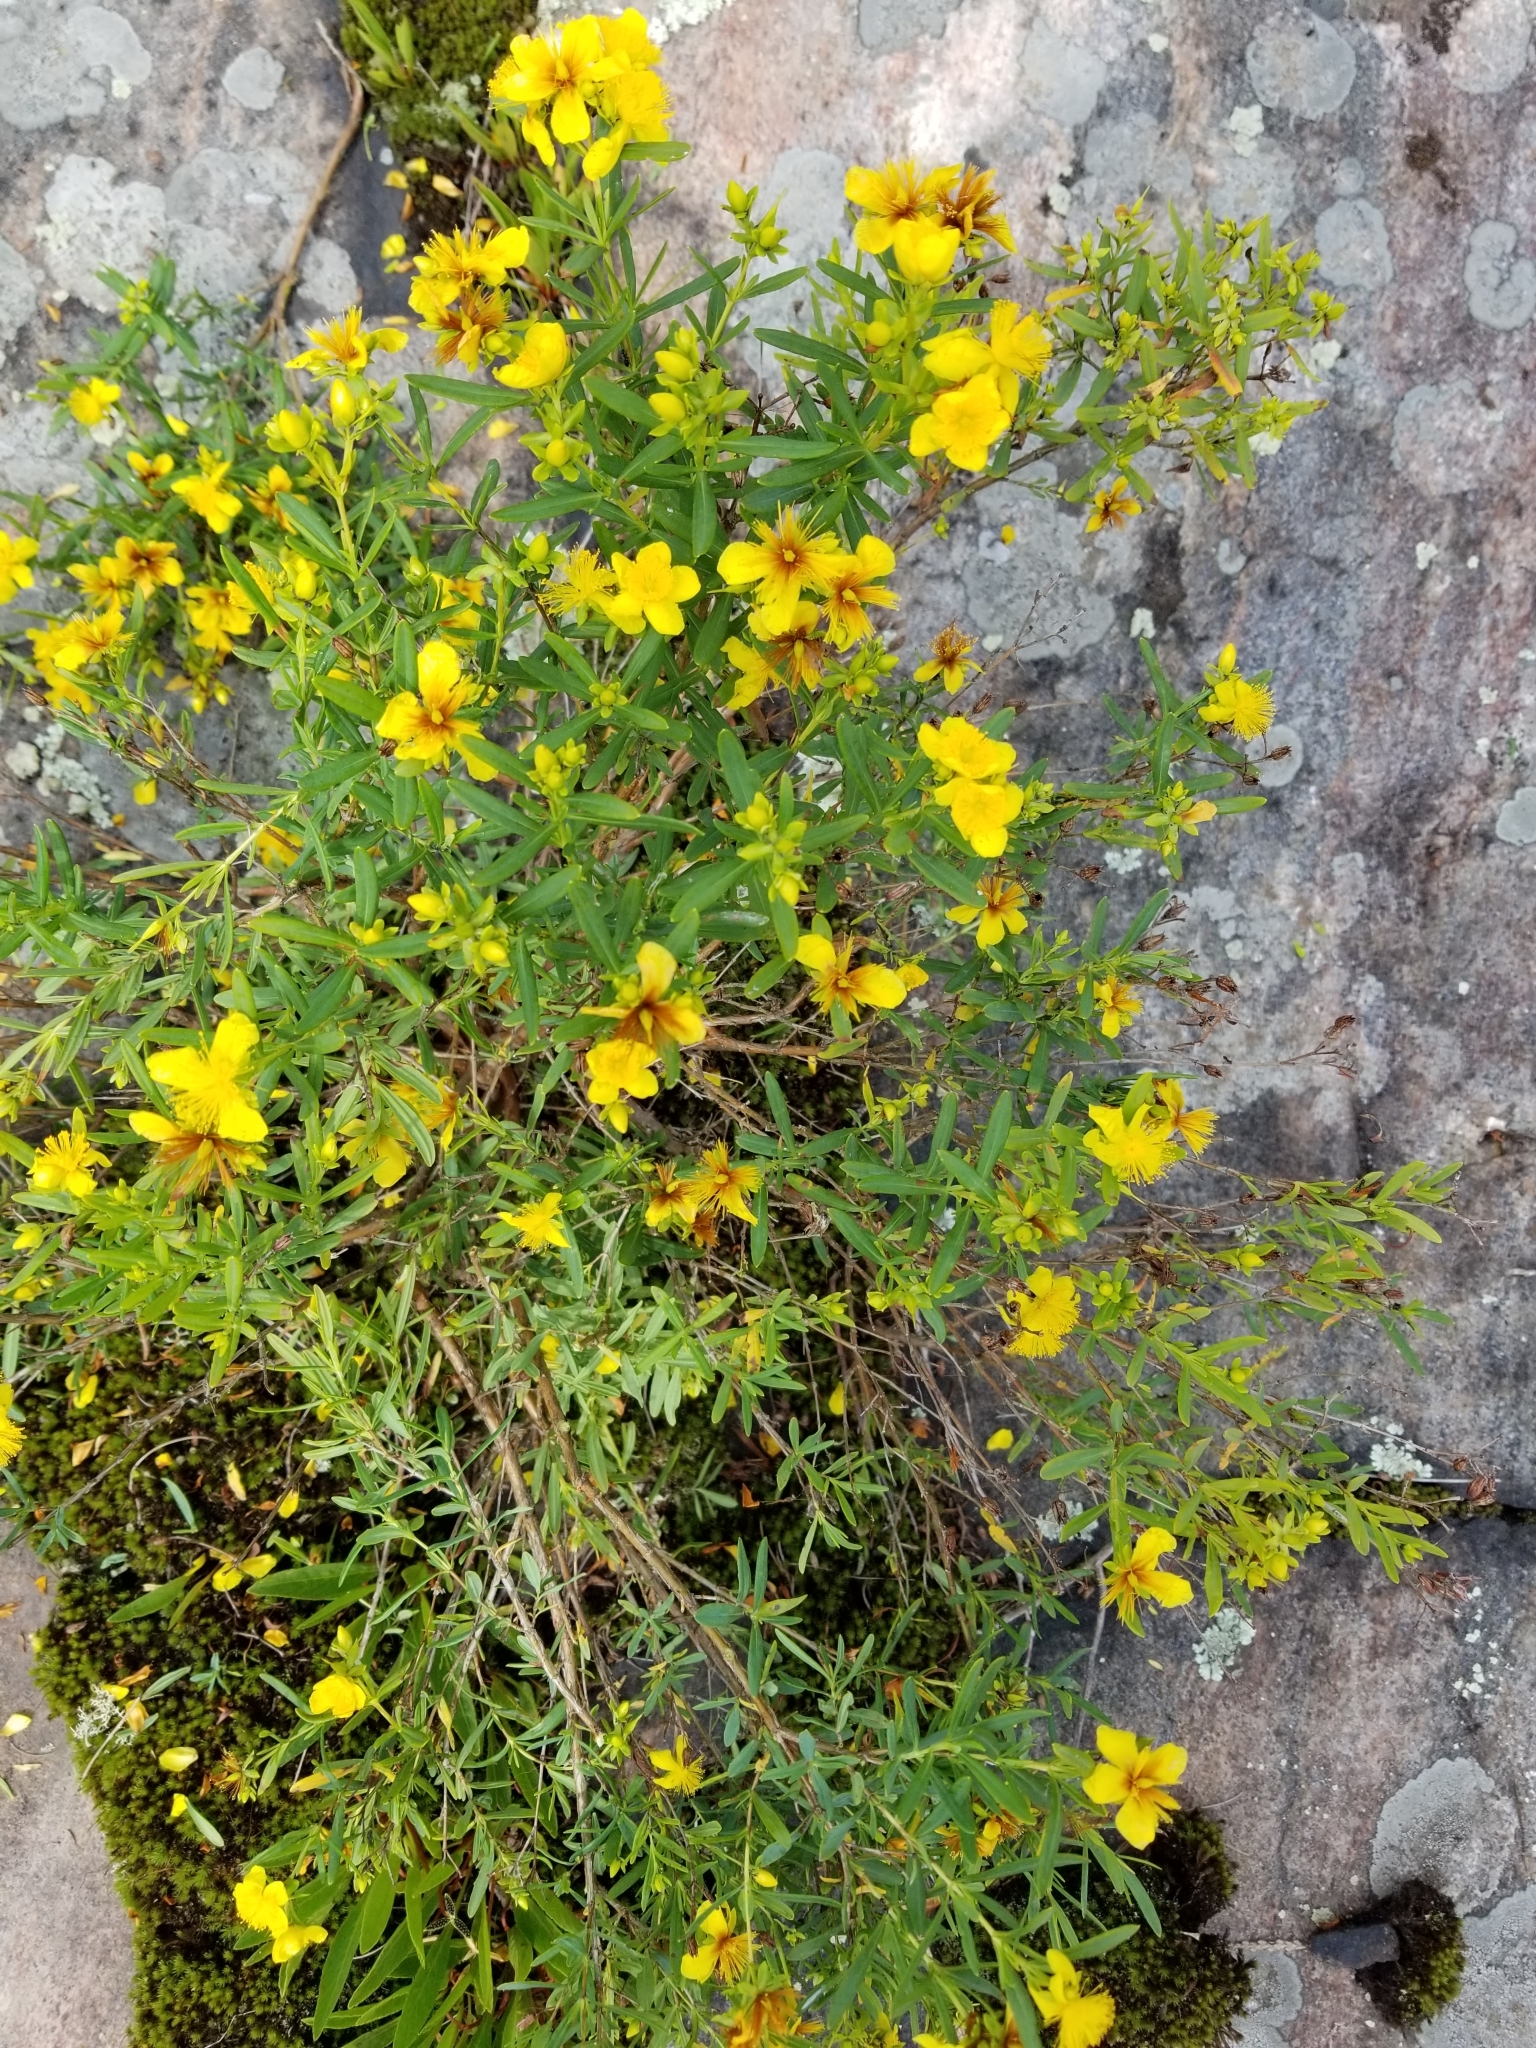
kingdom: Plantae
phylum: Tracheophyta
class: Magnoliopsida
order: Malpighiales
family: Hypericaceae
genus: Hypericum
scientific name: Hypericum kalmianum
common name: Kalm's st. john's-wort
